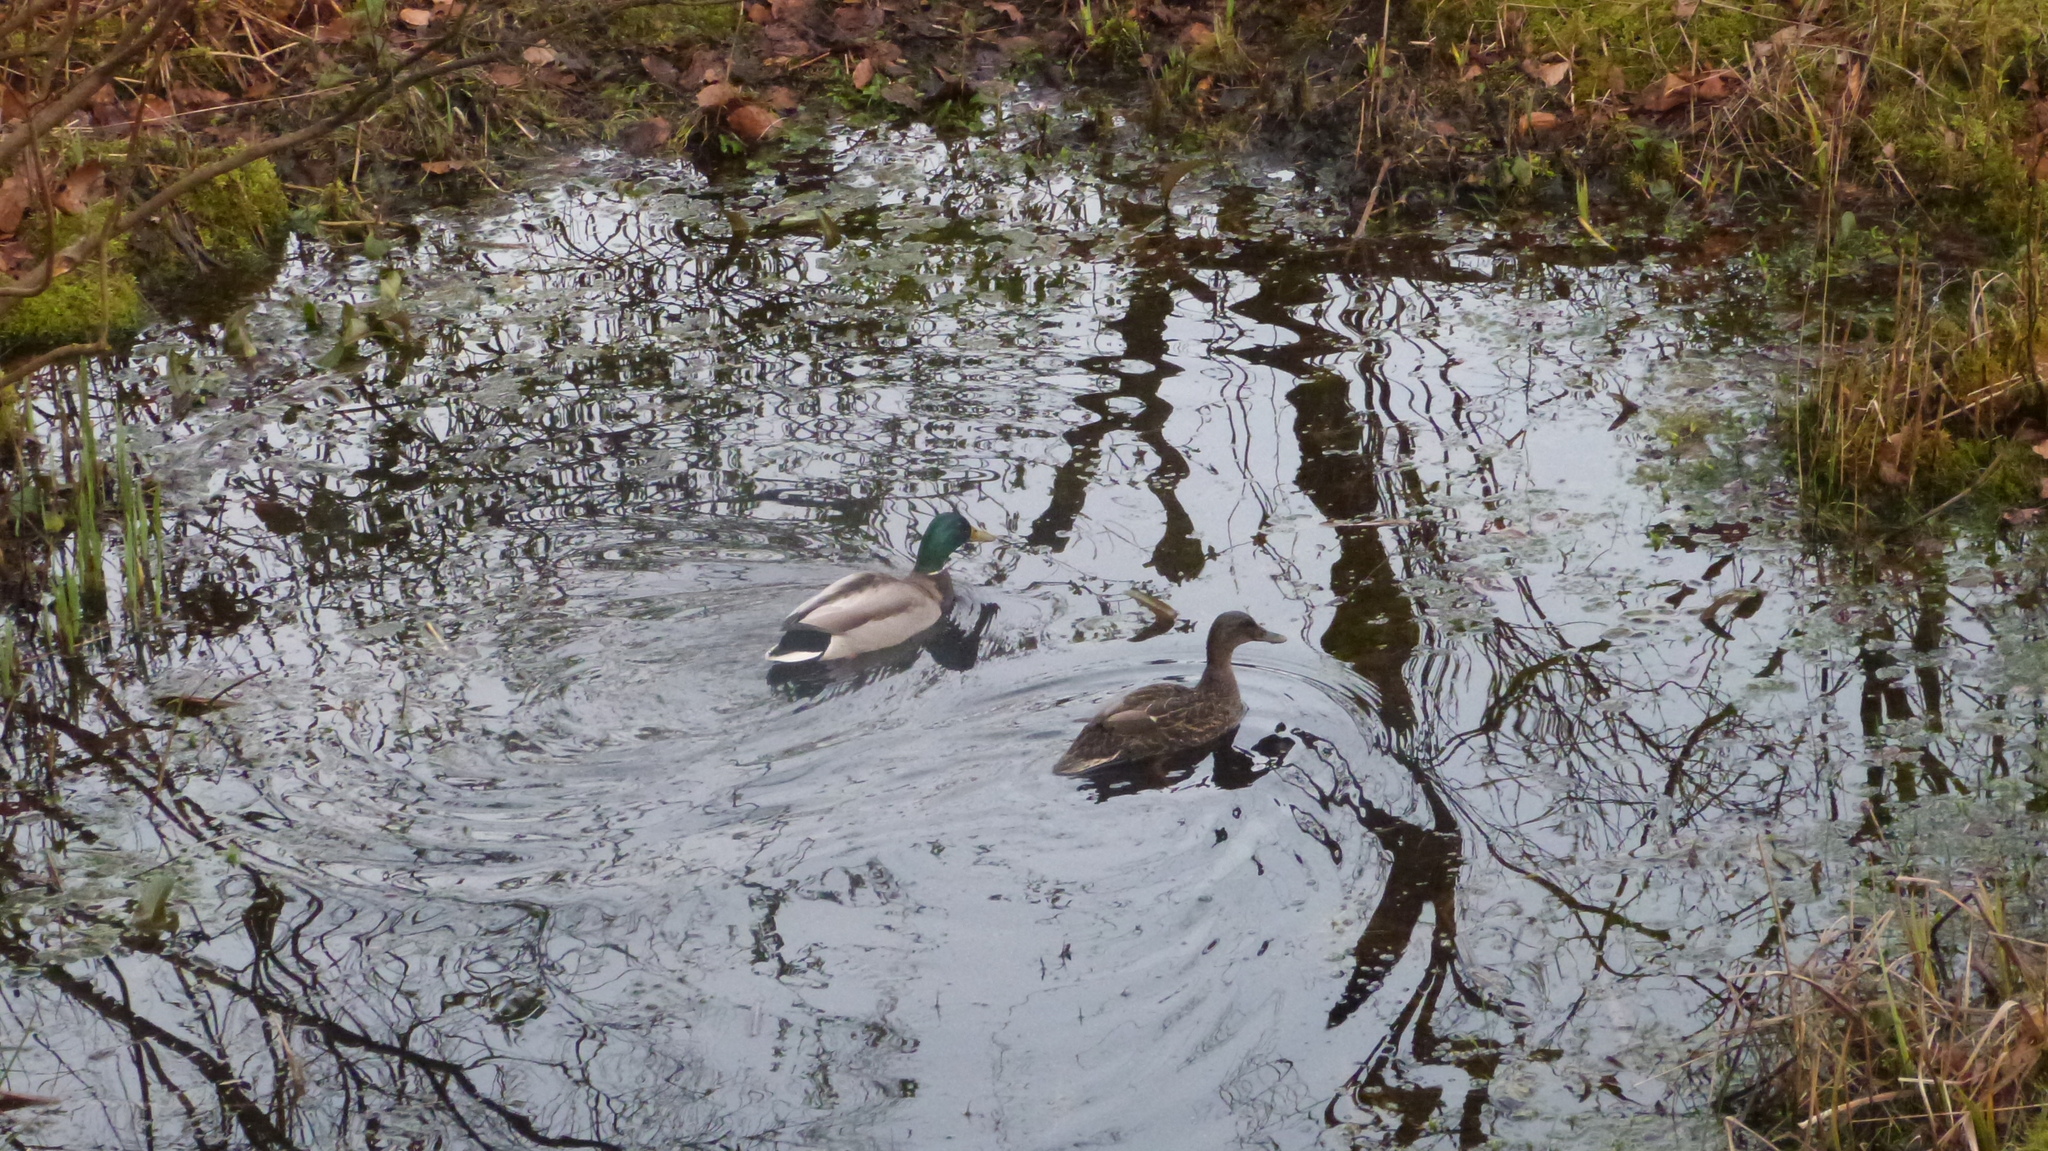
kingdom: Animalia
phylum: Chordata
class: Aves
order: Anseriformes
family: Anatidae
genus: Anas
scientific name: Anas platyrhynchos
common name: Mallard
